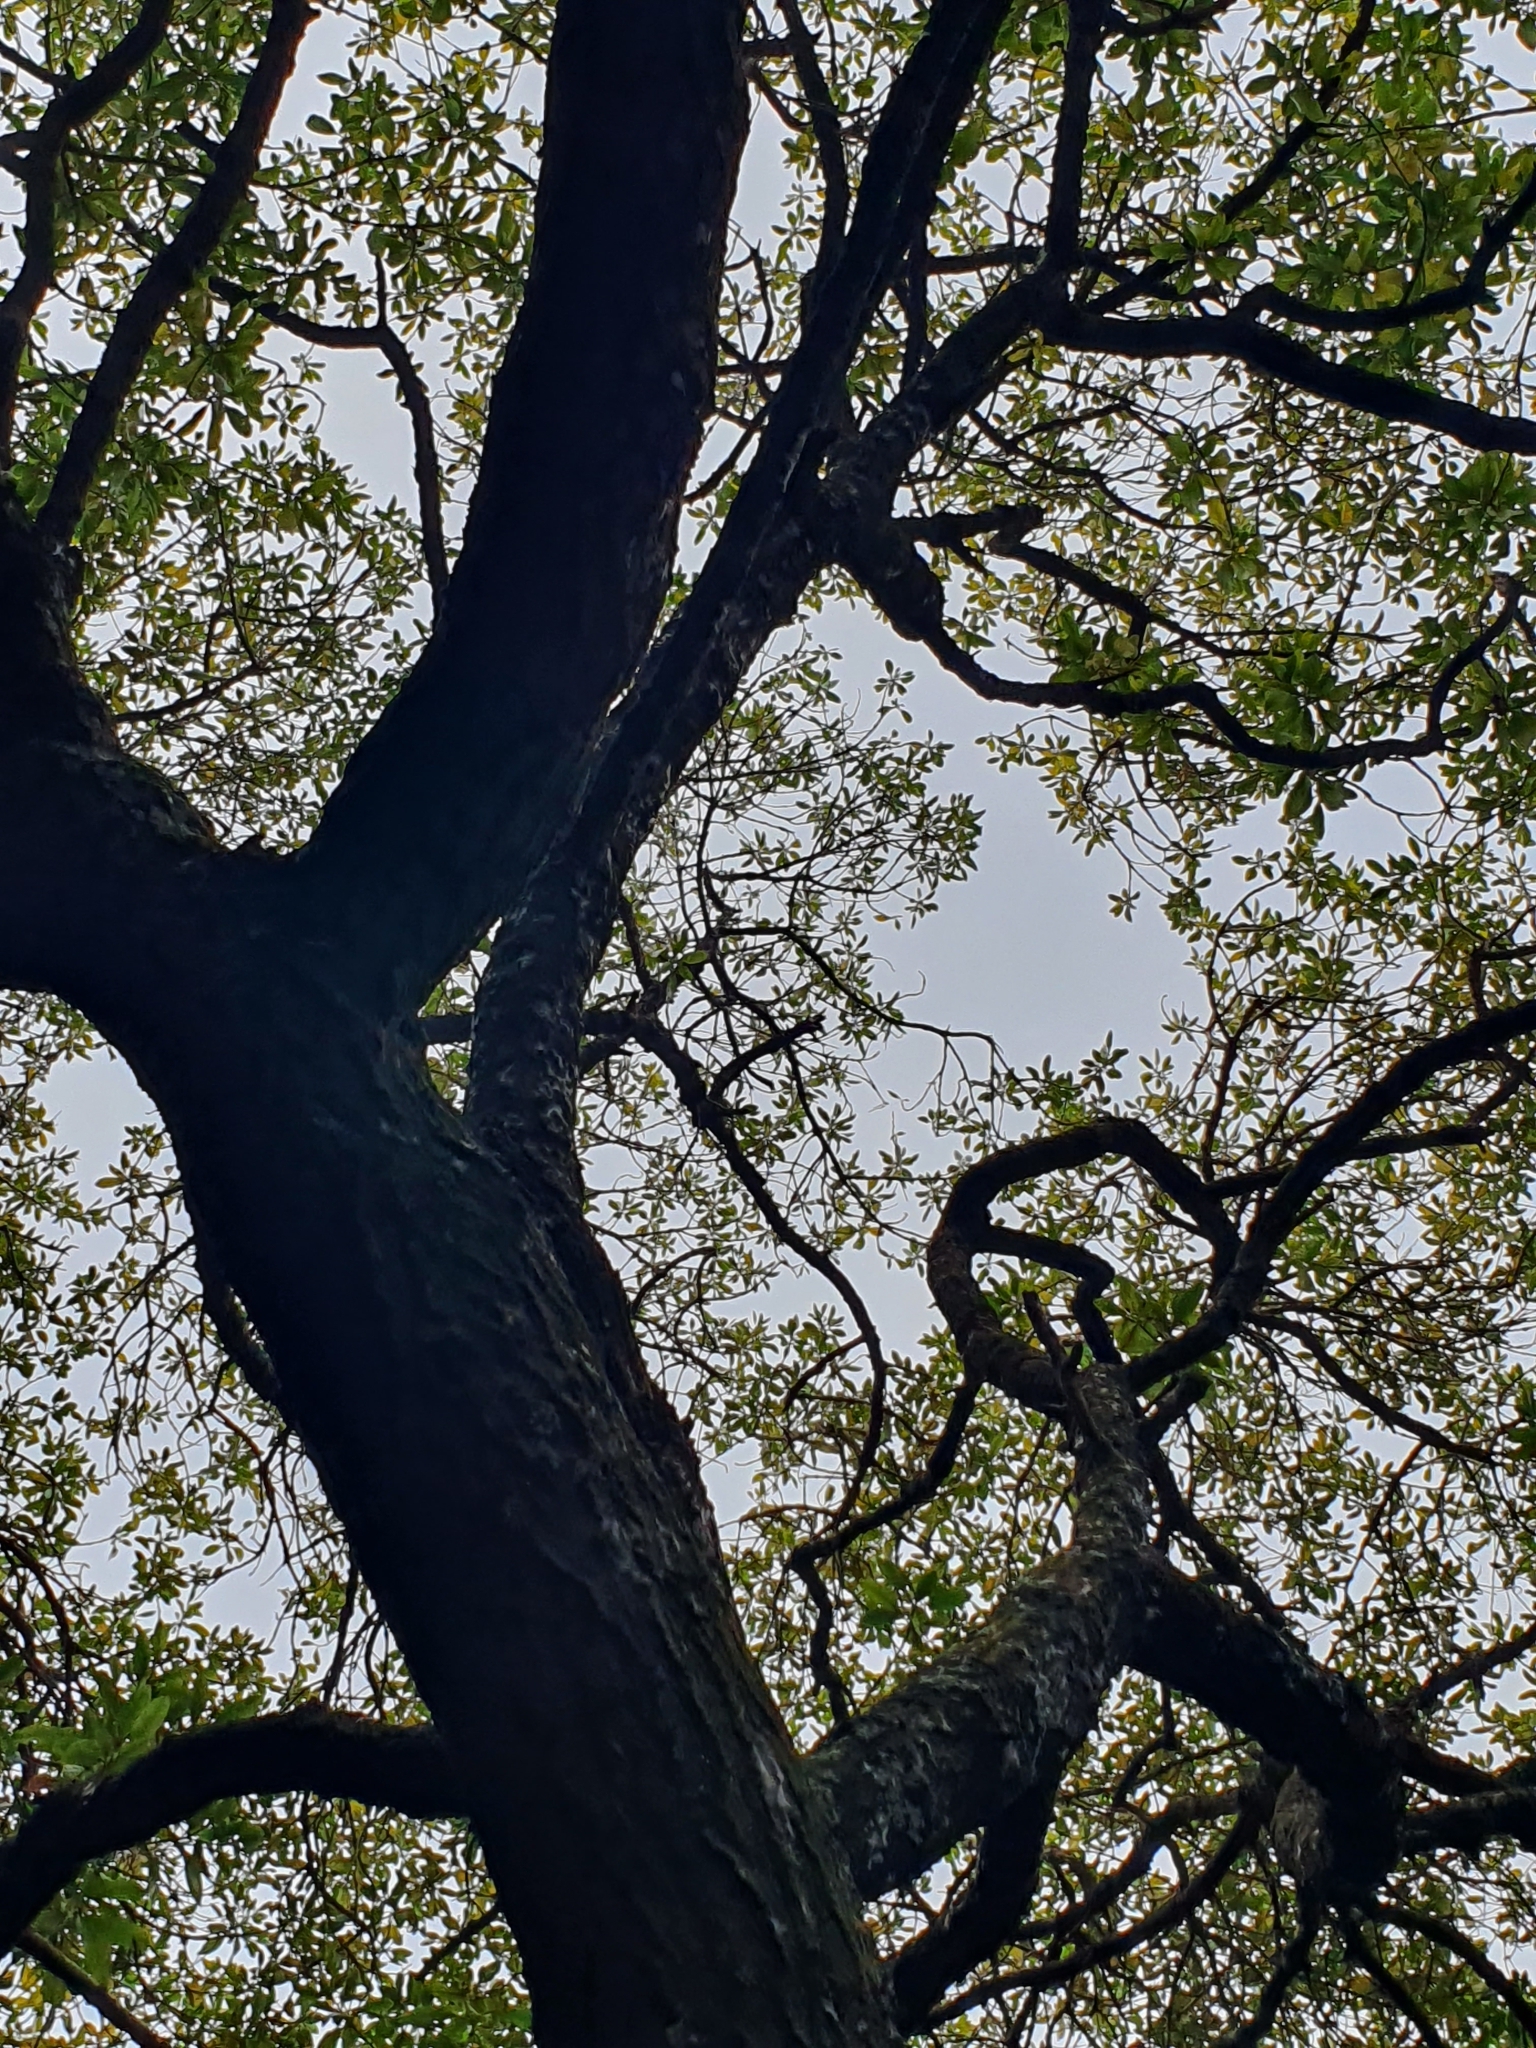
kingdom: Plantae
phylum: Tracheophyta
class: Magnoliopsida
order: Lamiales
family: Scrophulariaceae
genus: Myoporum
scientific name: Myoporum laetum
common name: Ngaio tree
